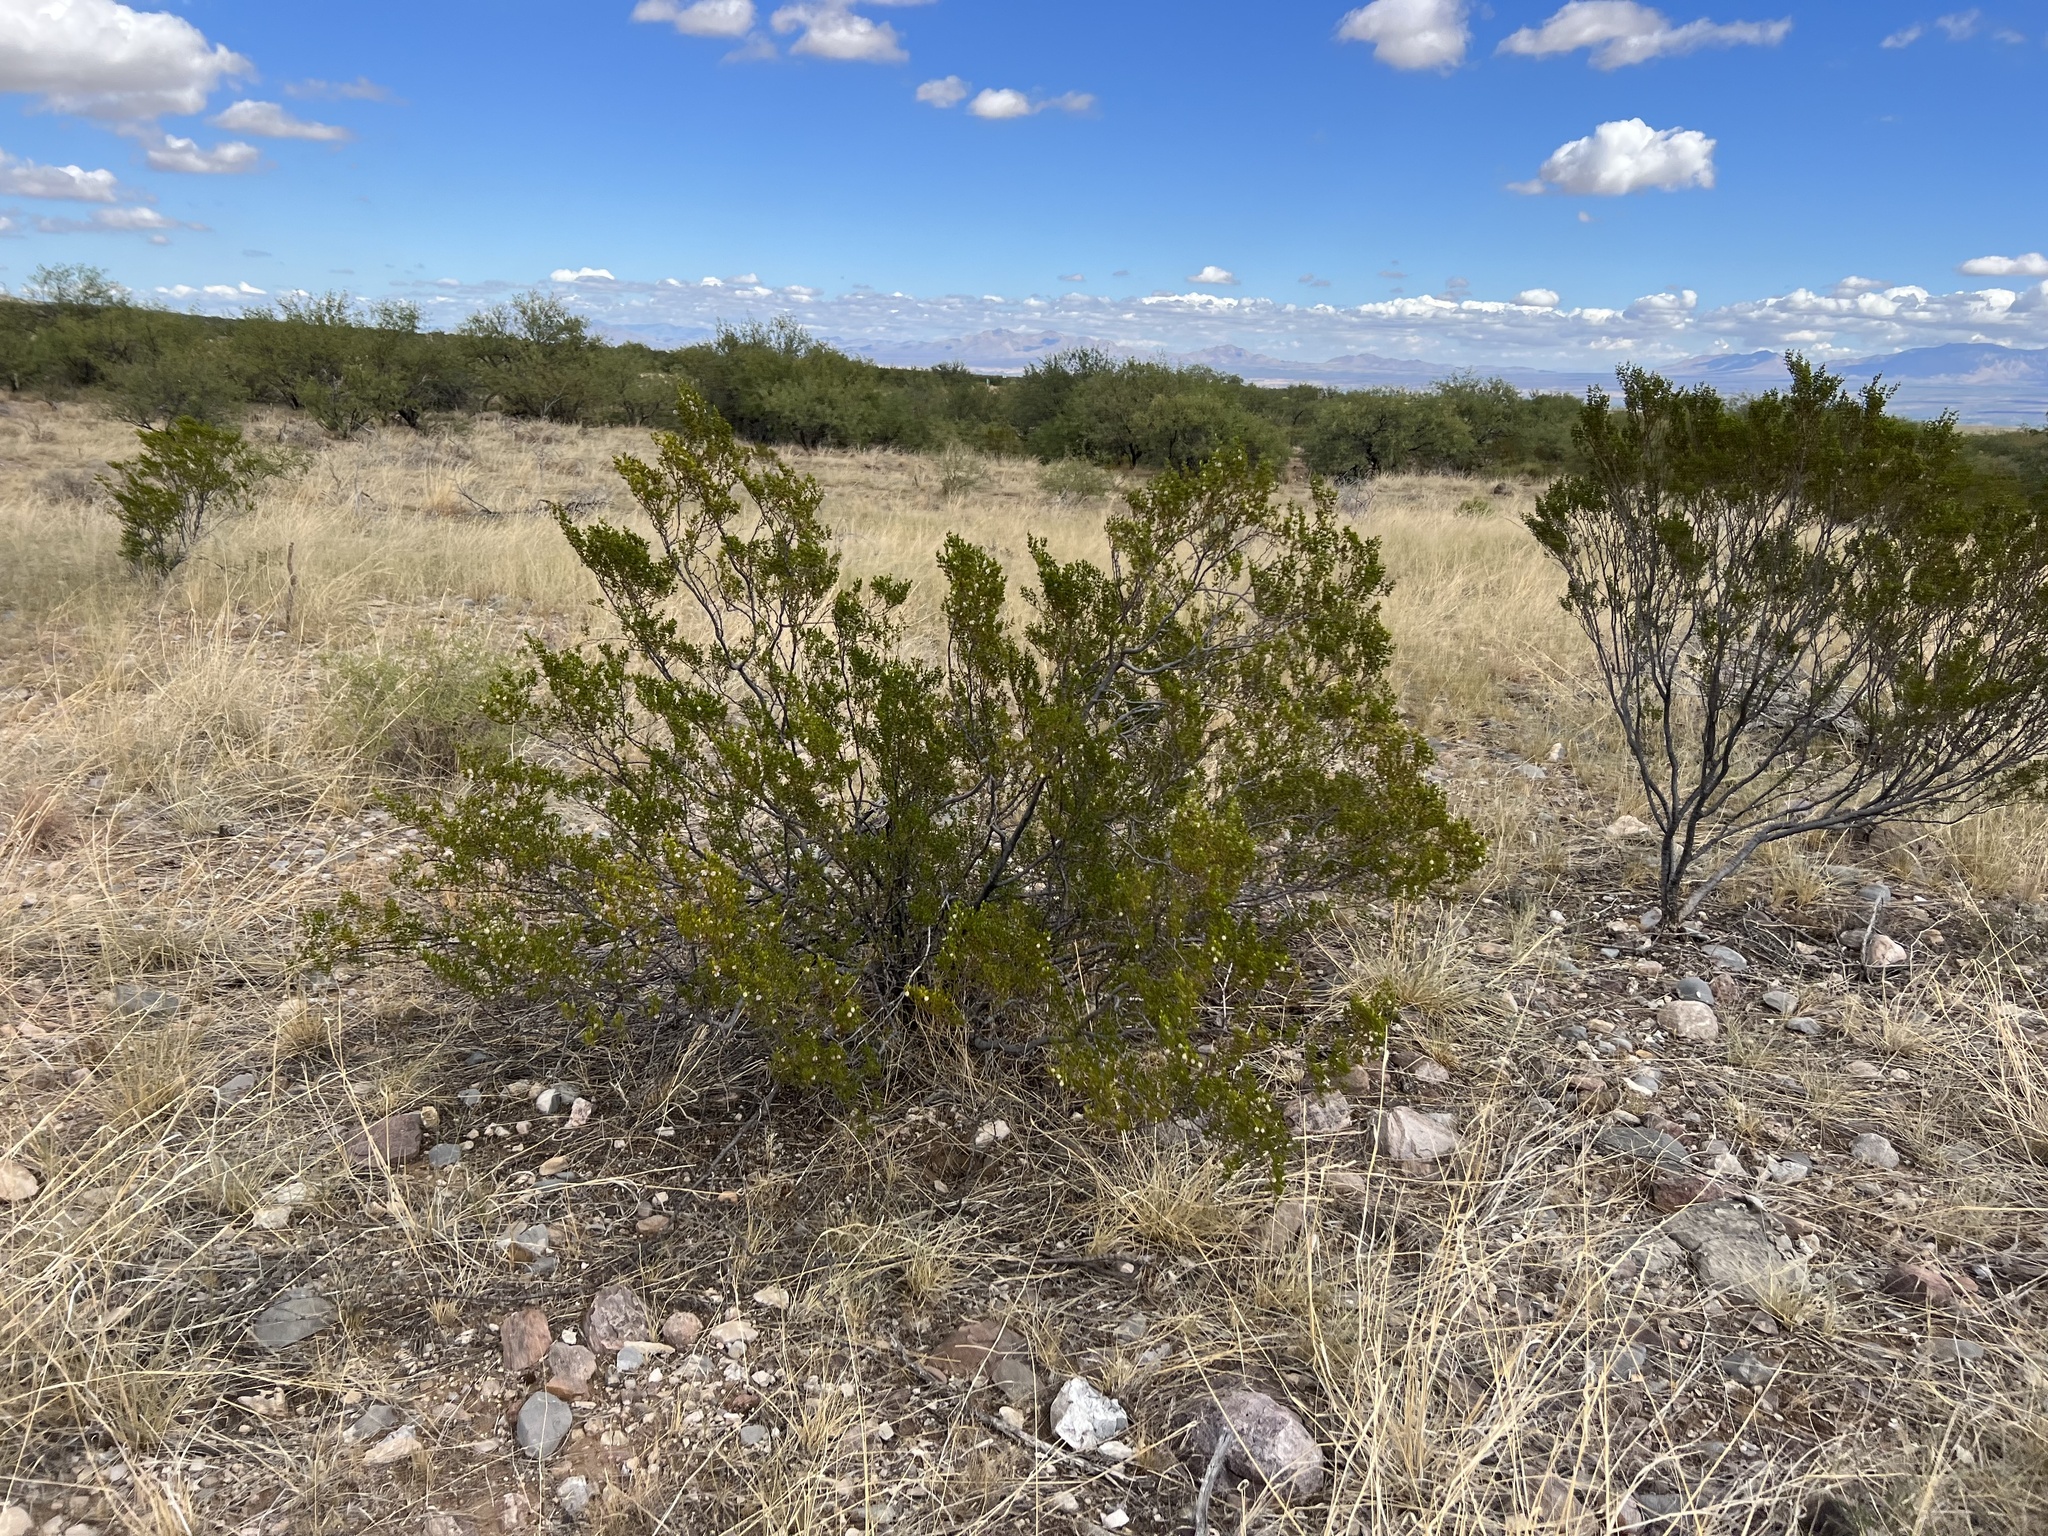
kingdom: Plantae
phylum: Tracheophyta
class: Magnoliopsida
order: Zygophyllales
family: Zygophyllaceae
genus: Larrea
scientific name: Larrea tridentata
